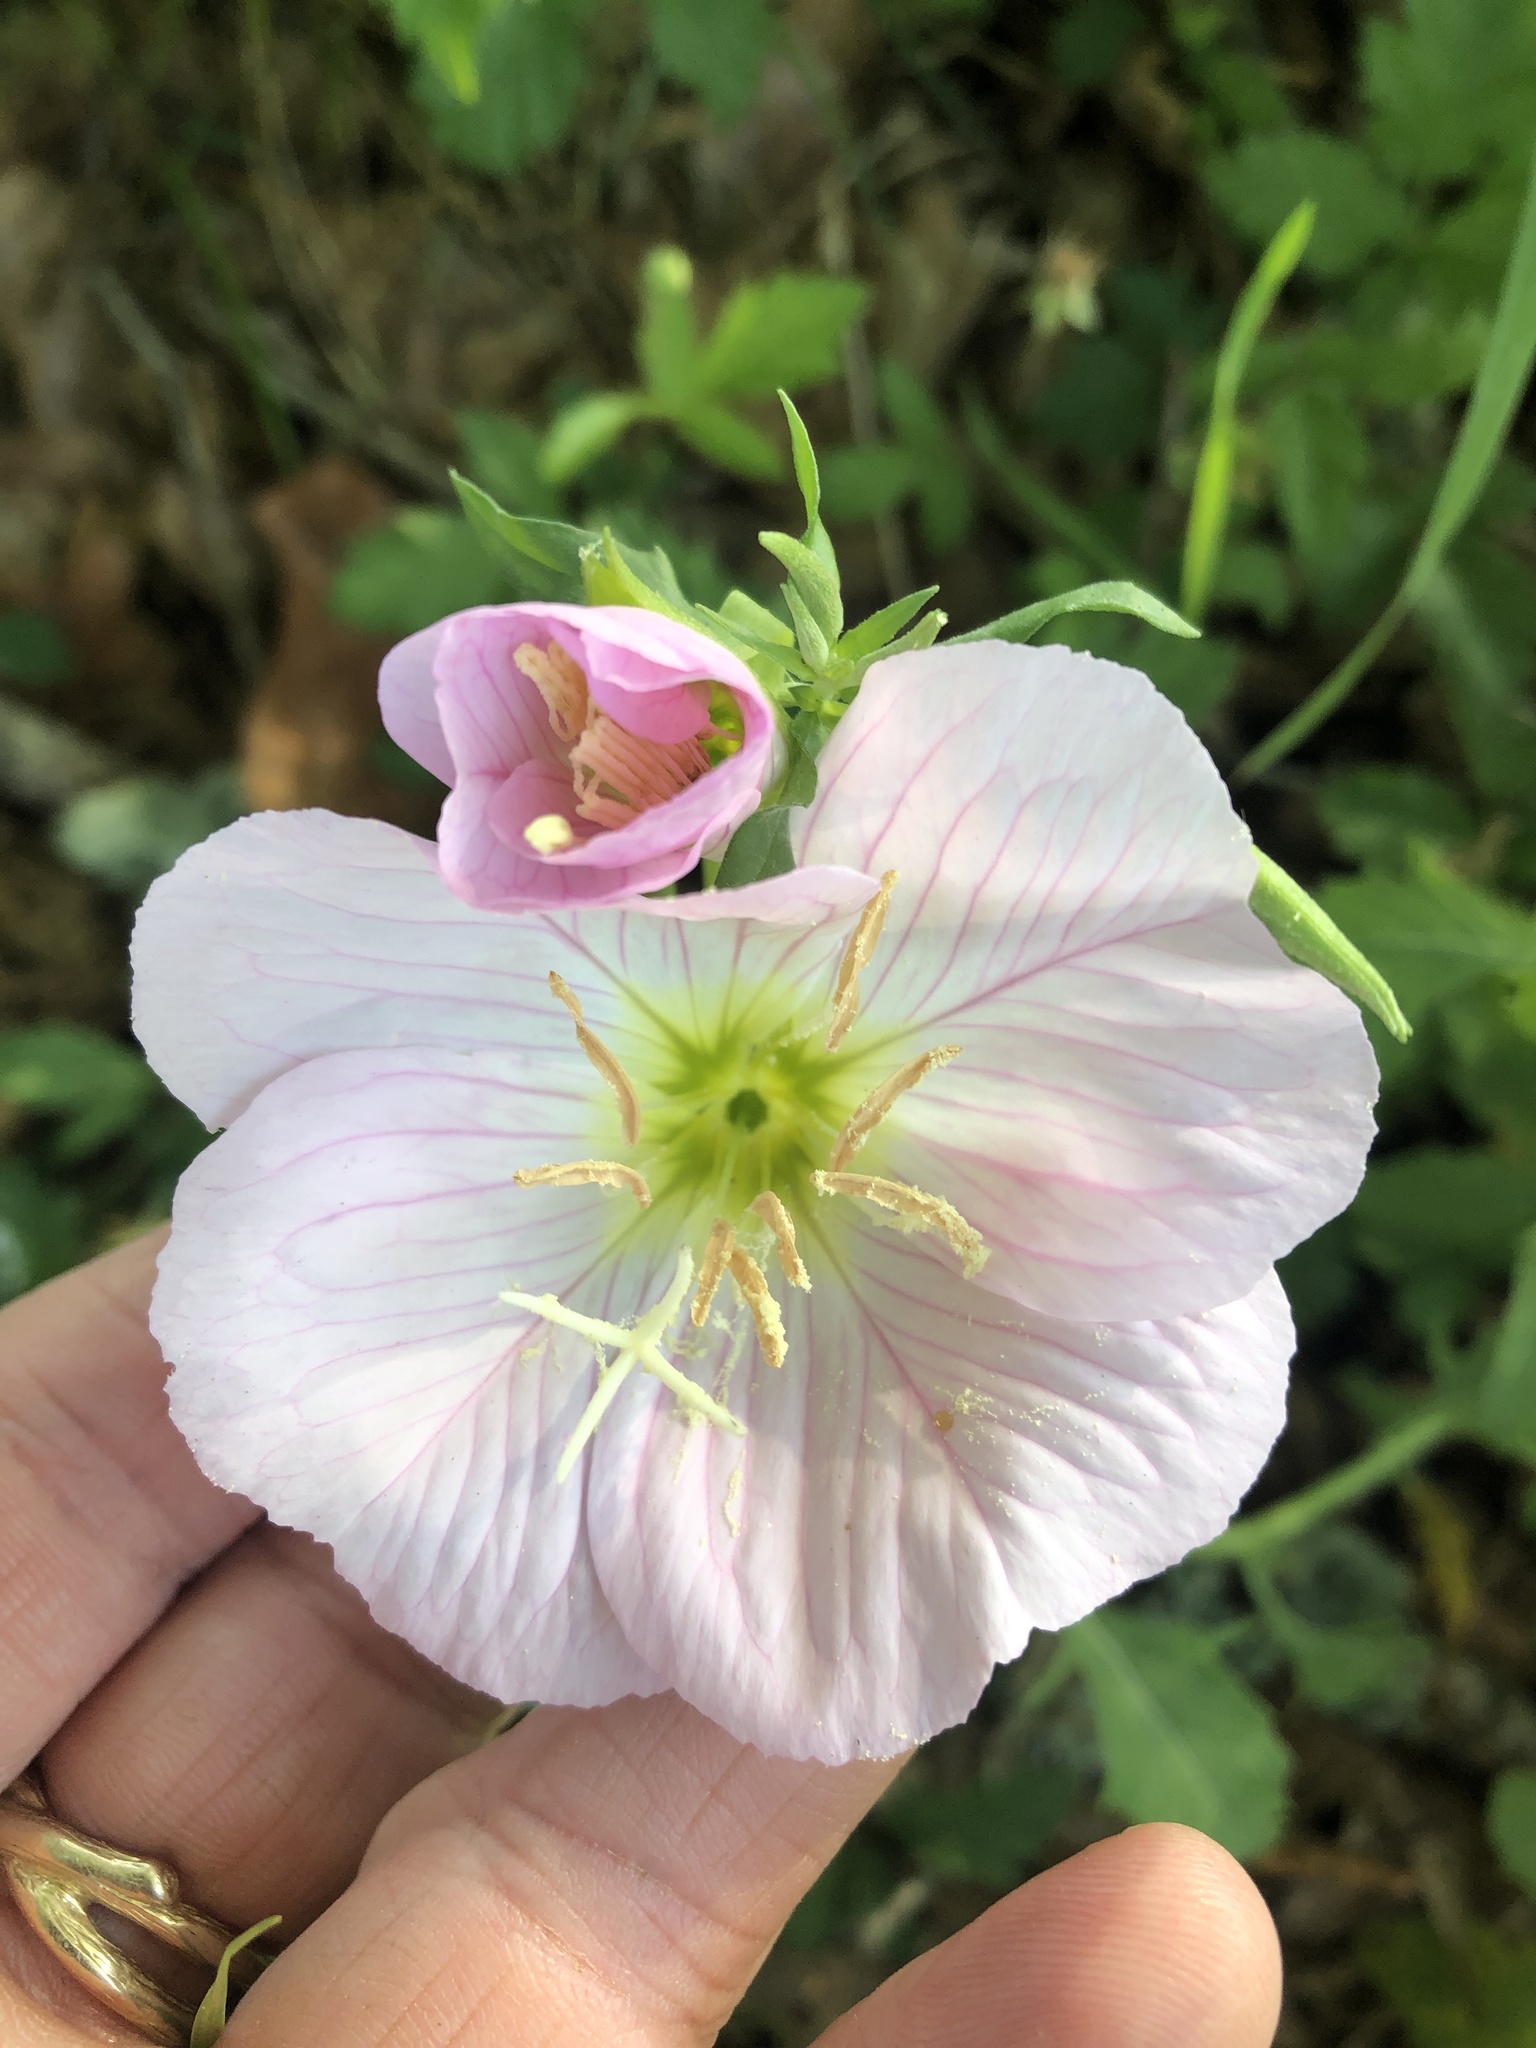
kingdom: Plantae
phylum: Tracheophyta
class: Magnoliopsida
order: Myrtales
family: Onagraceae
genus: Oenothera
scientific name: Oenothera speciosa
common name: White evening-primrose
